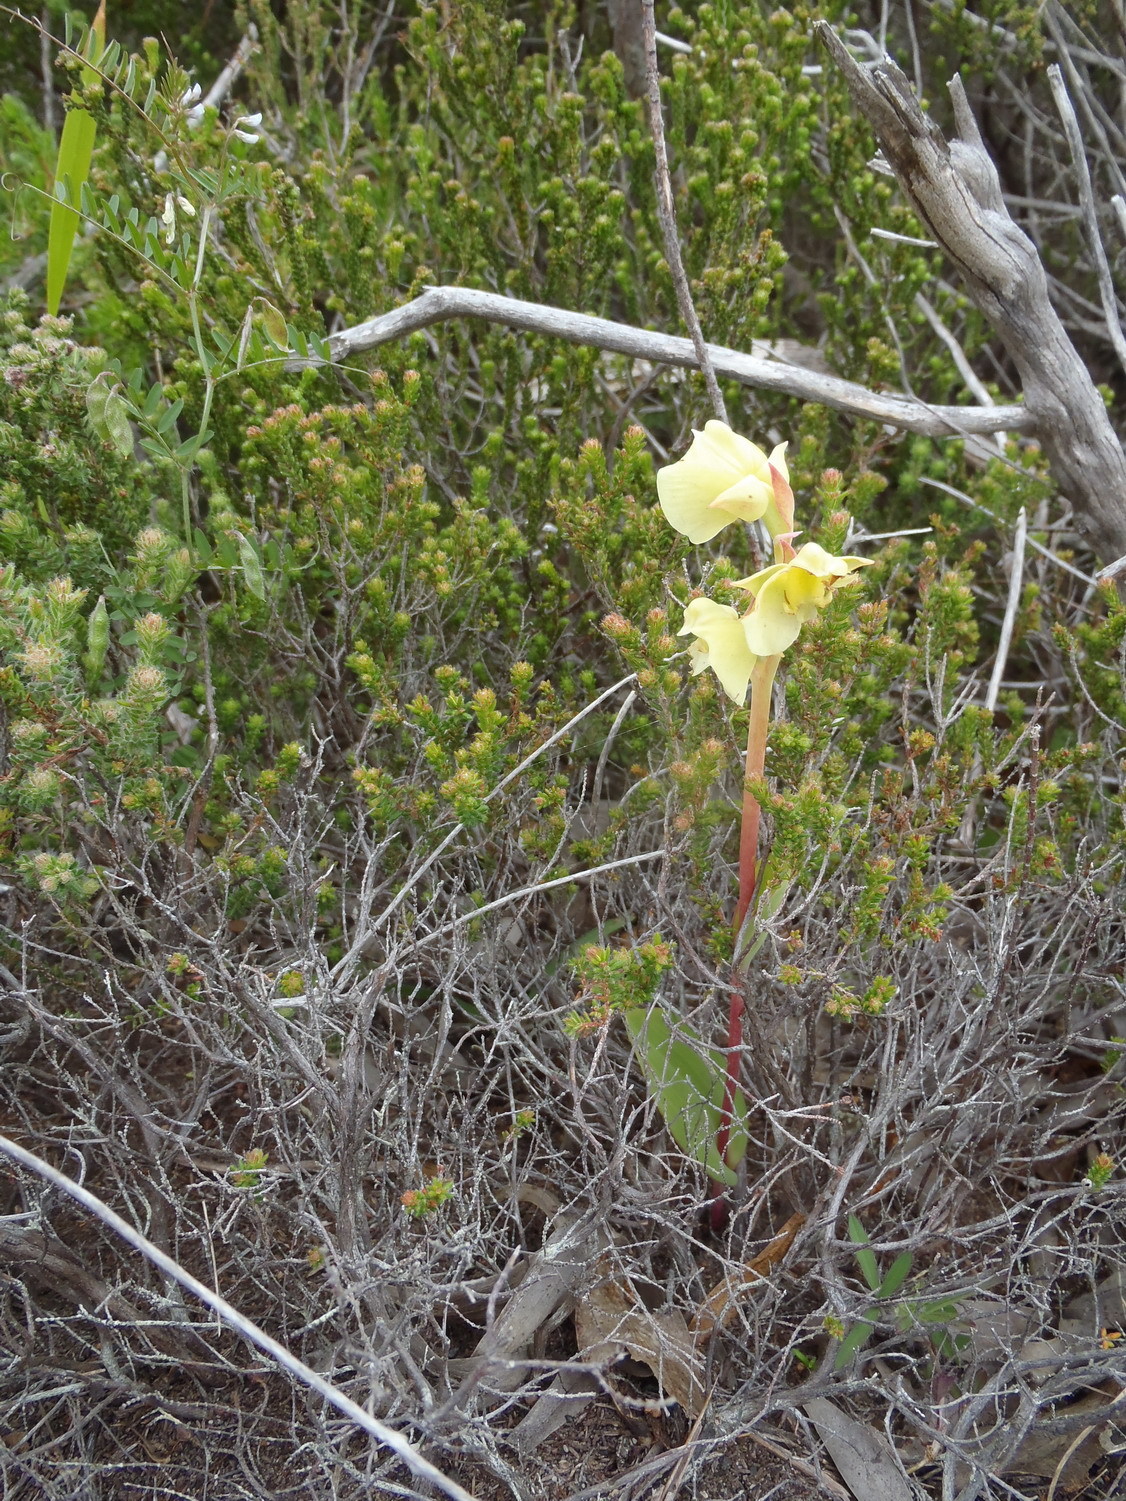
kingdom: Plantae
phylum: Tracheophyta
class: Liliopsida
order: Asparagales
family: Orchidaceae
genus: Pterygodium
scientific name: Pterygodium catholicum
